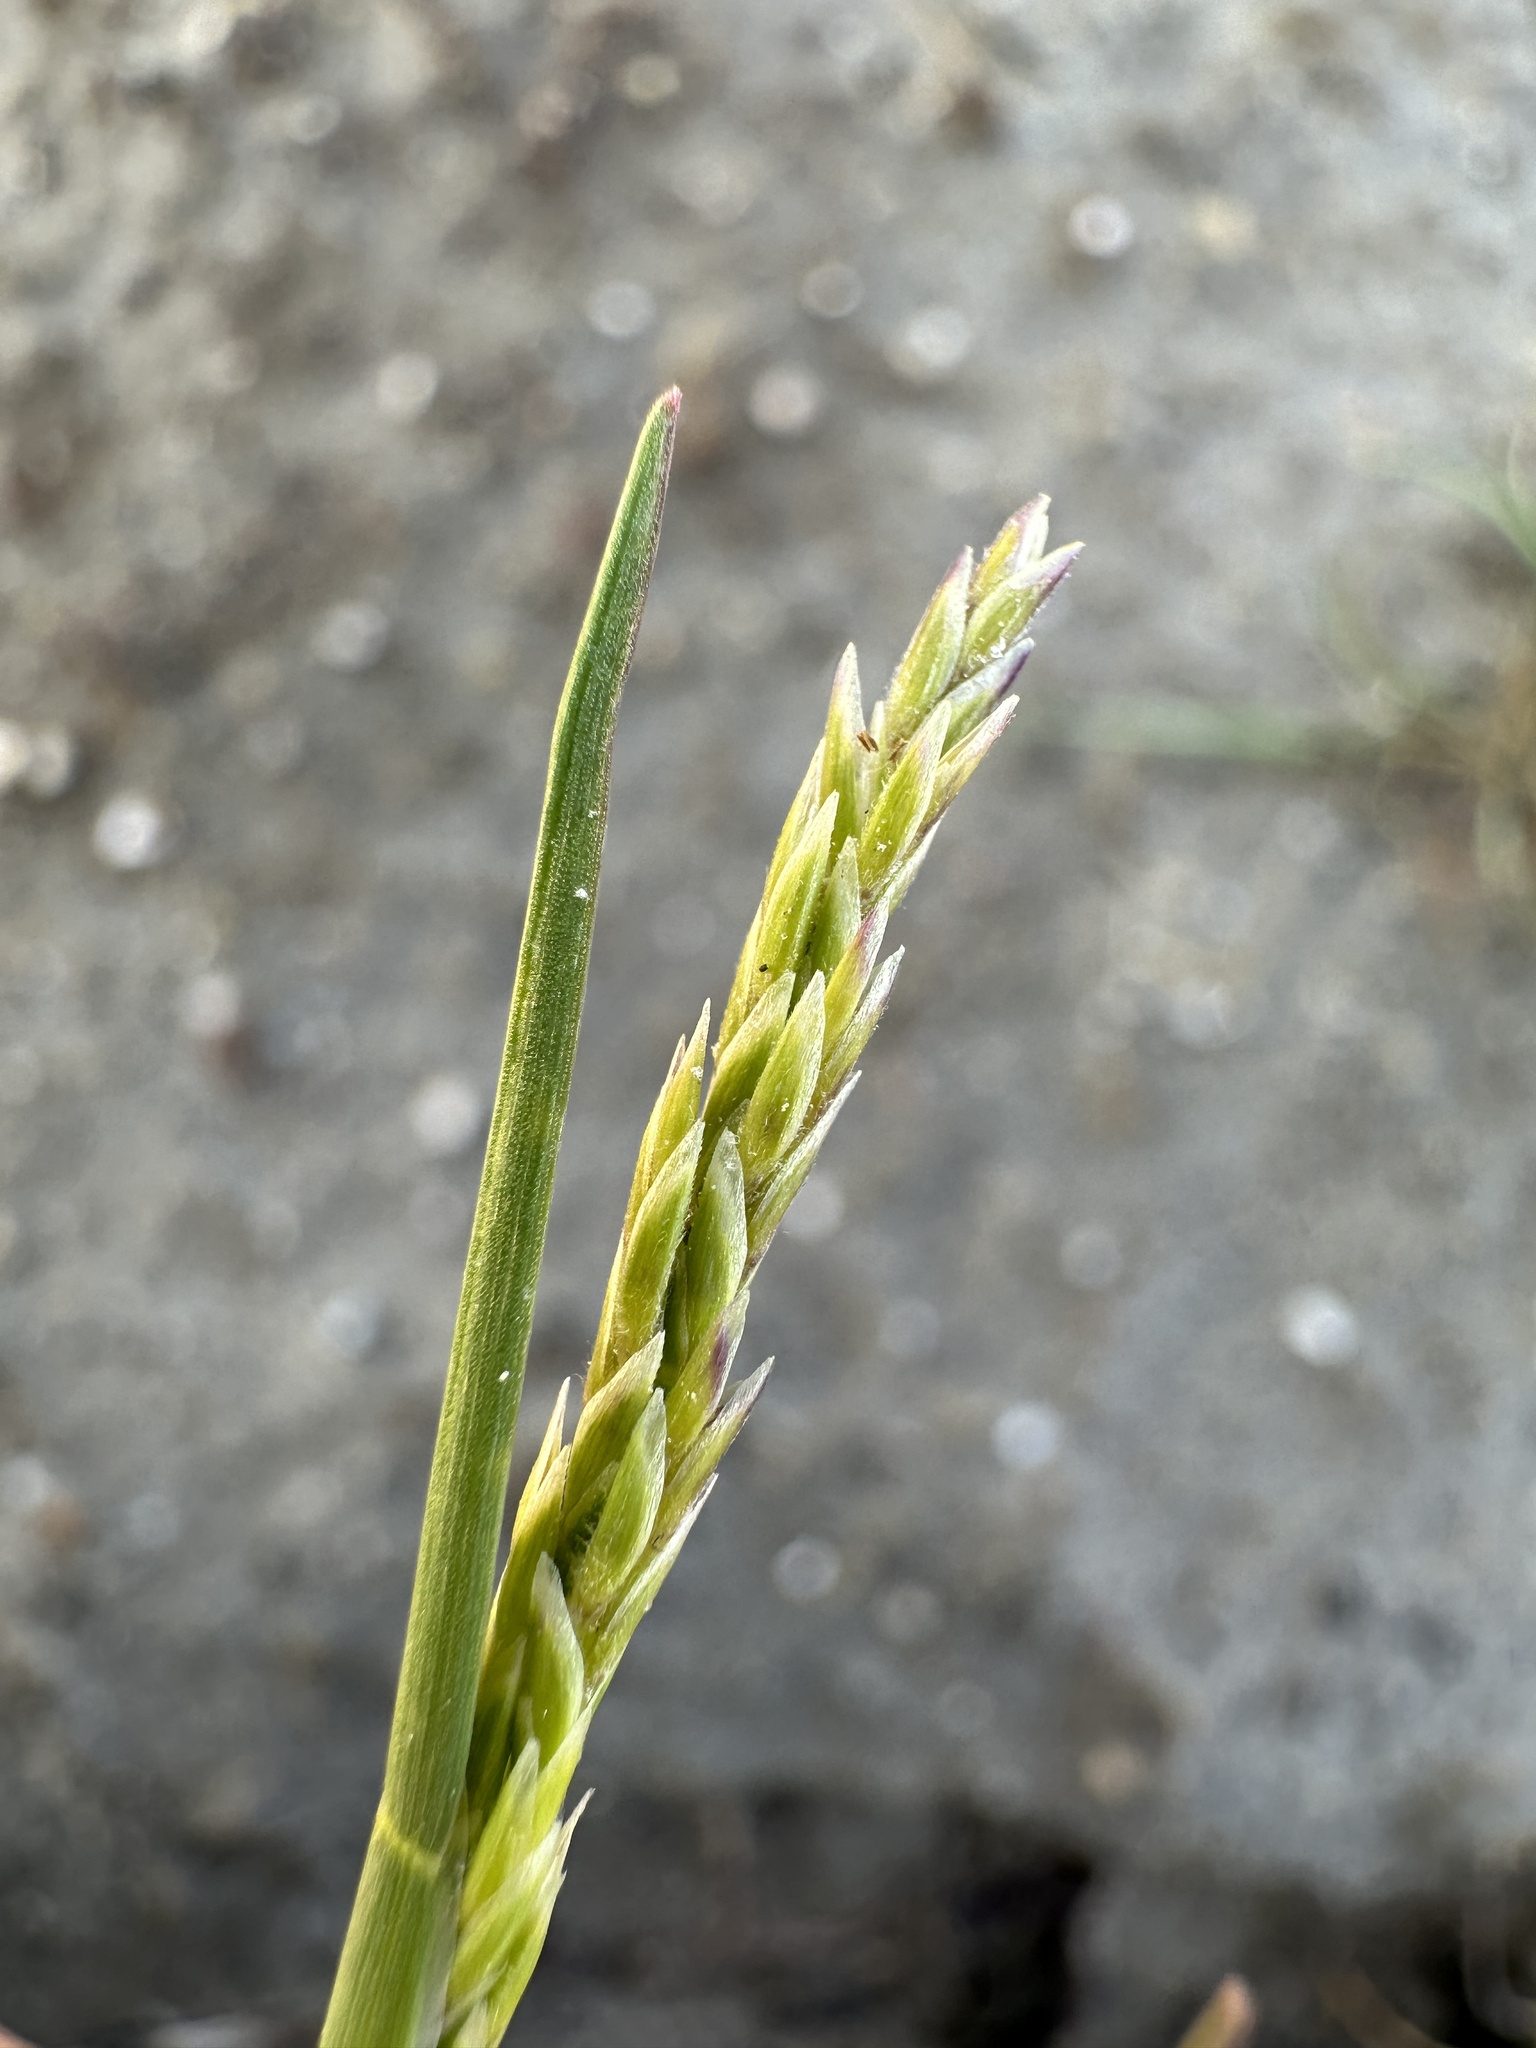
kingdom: Plantae
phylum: Tracheophyta
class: Liliopsida
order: Poales
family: Poaceae
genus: Puccinellia
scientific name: Puccinellia simplex
